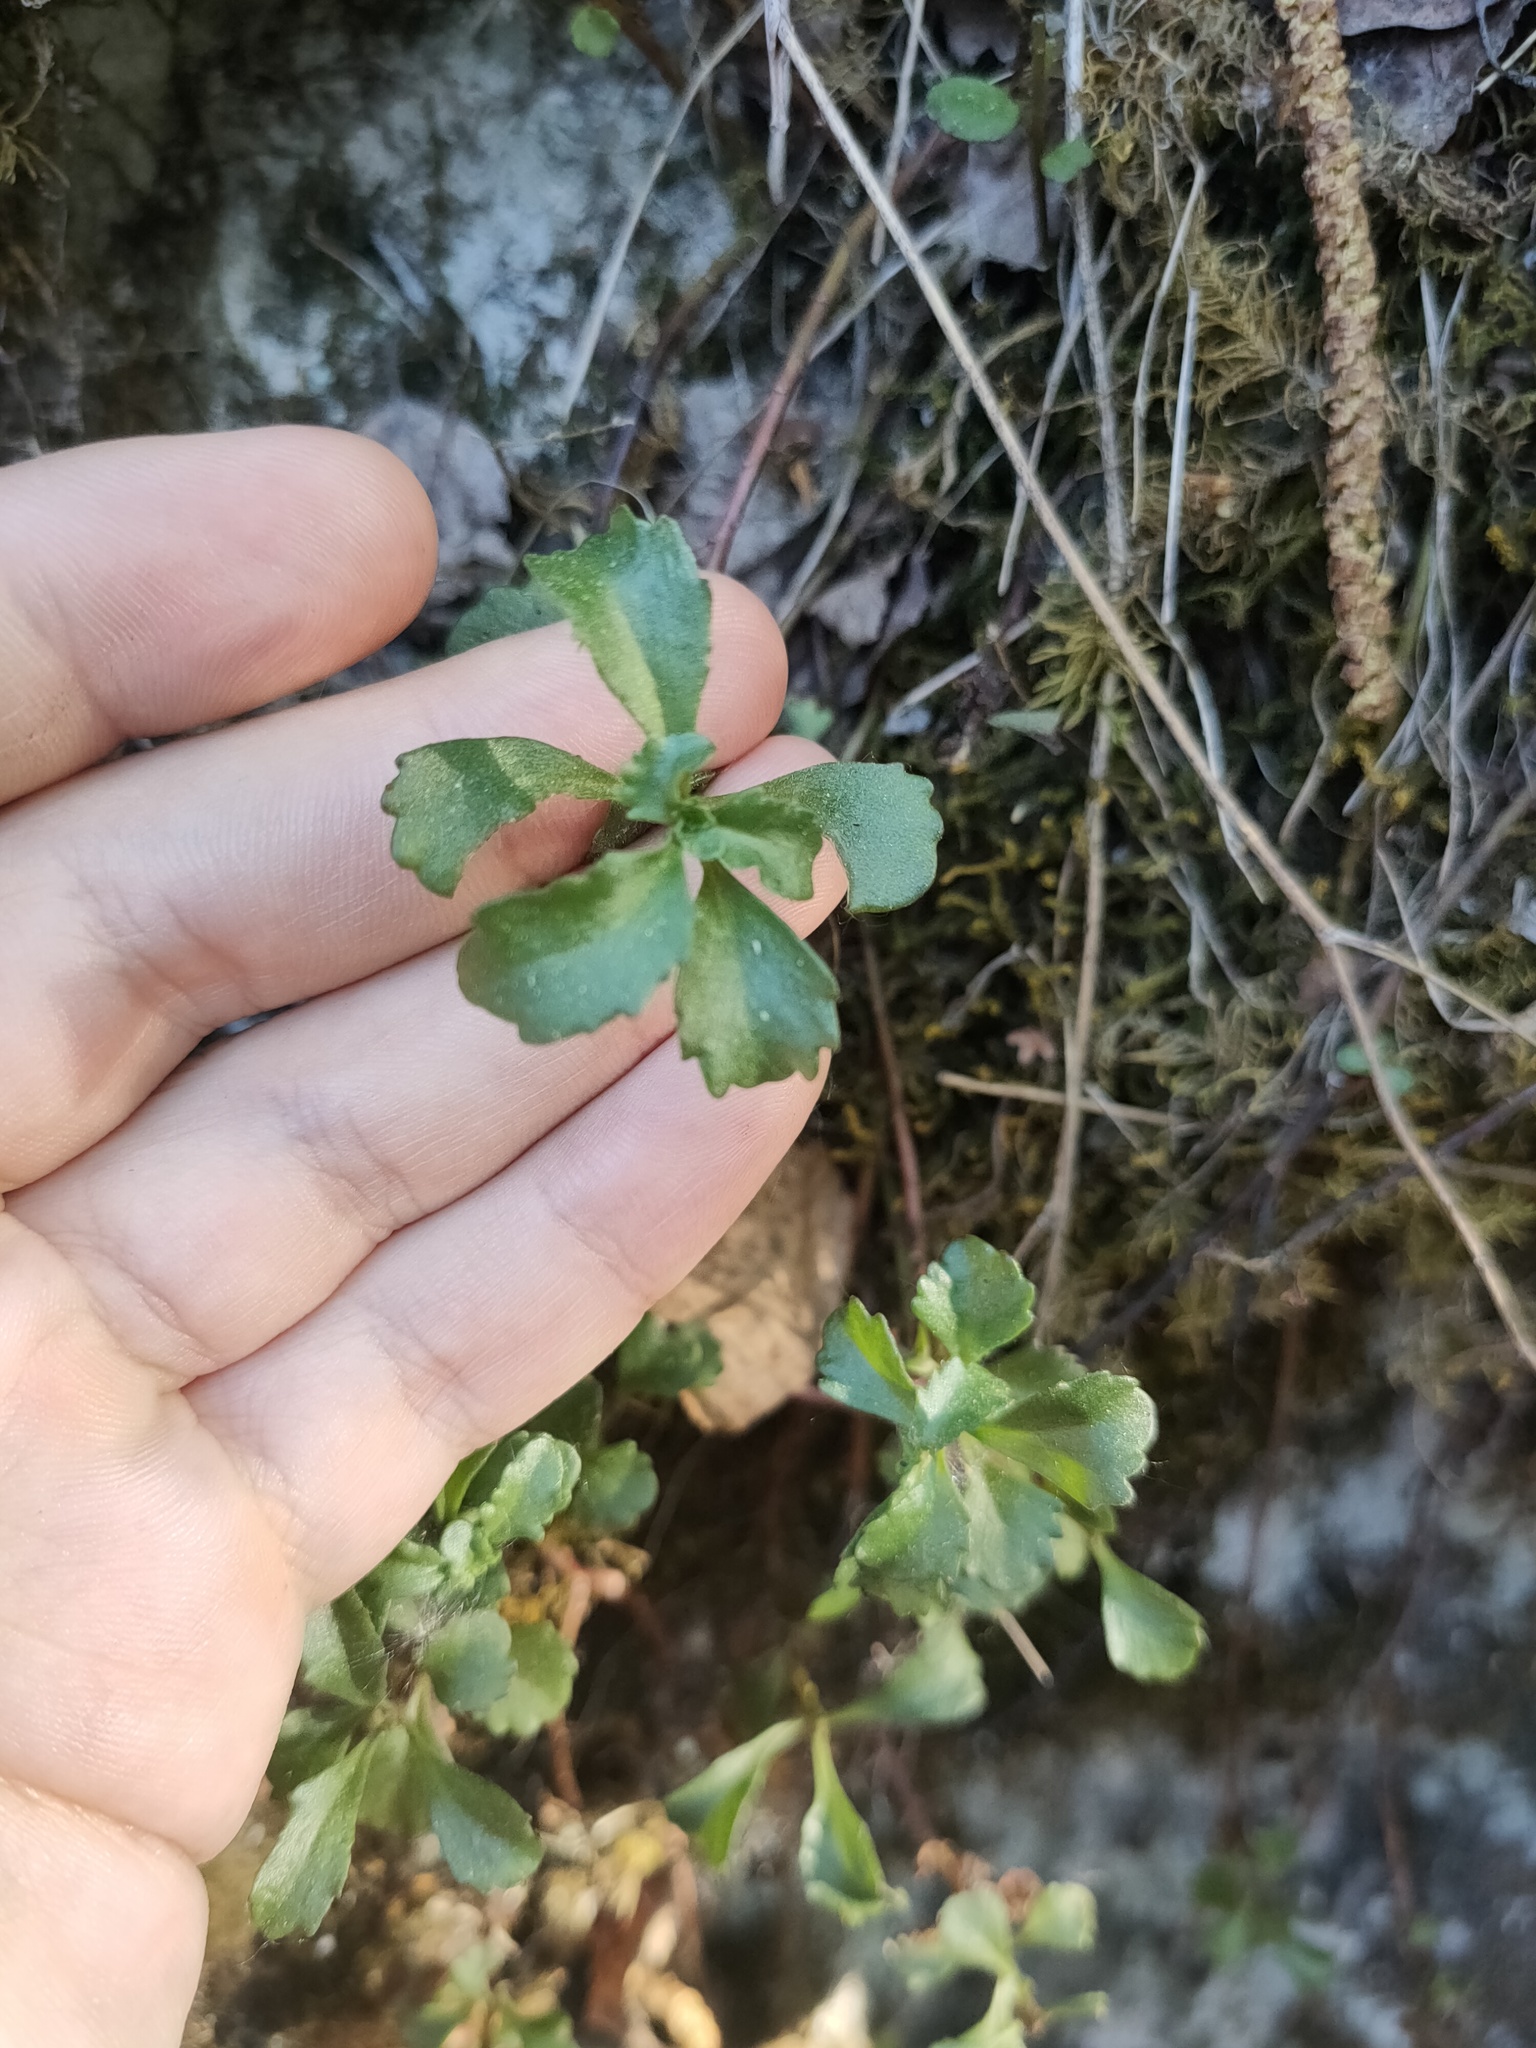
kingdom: Plantae
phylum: Tracheophyta
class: Magnoliopsida
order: Saxifragales
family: Crassulaceae
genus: Phedimus
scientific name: Phedimus hybridus
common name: Hybrid stonecrop
